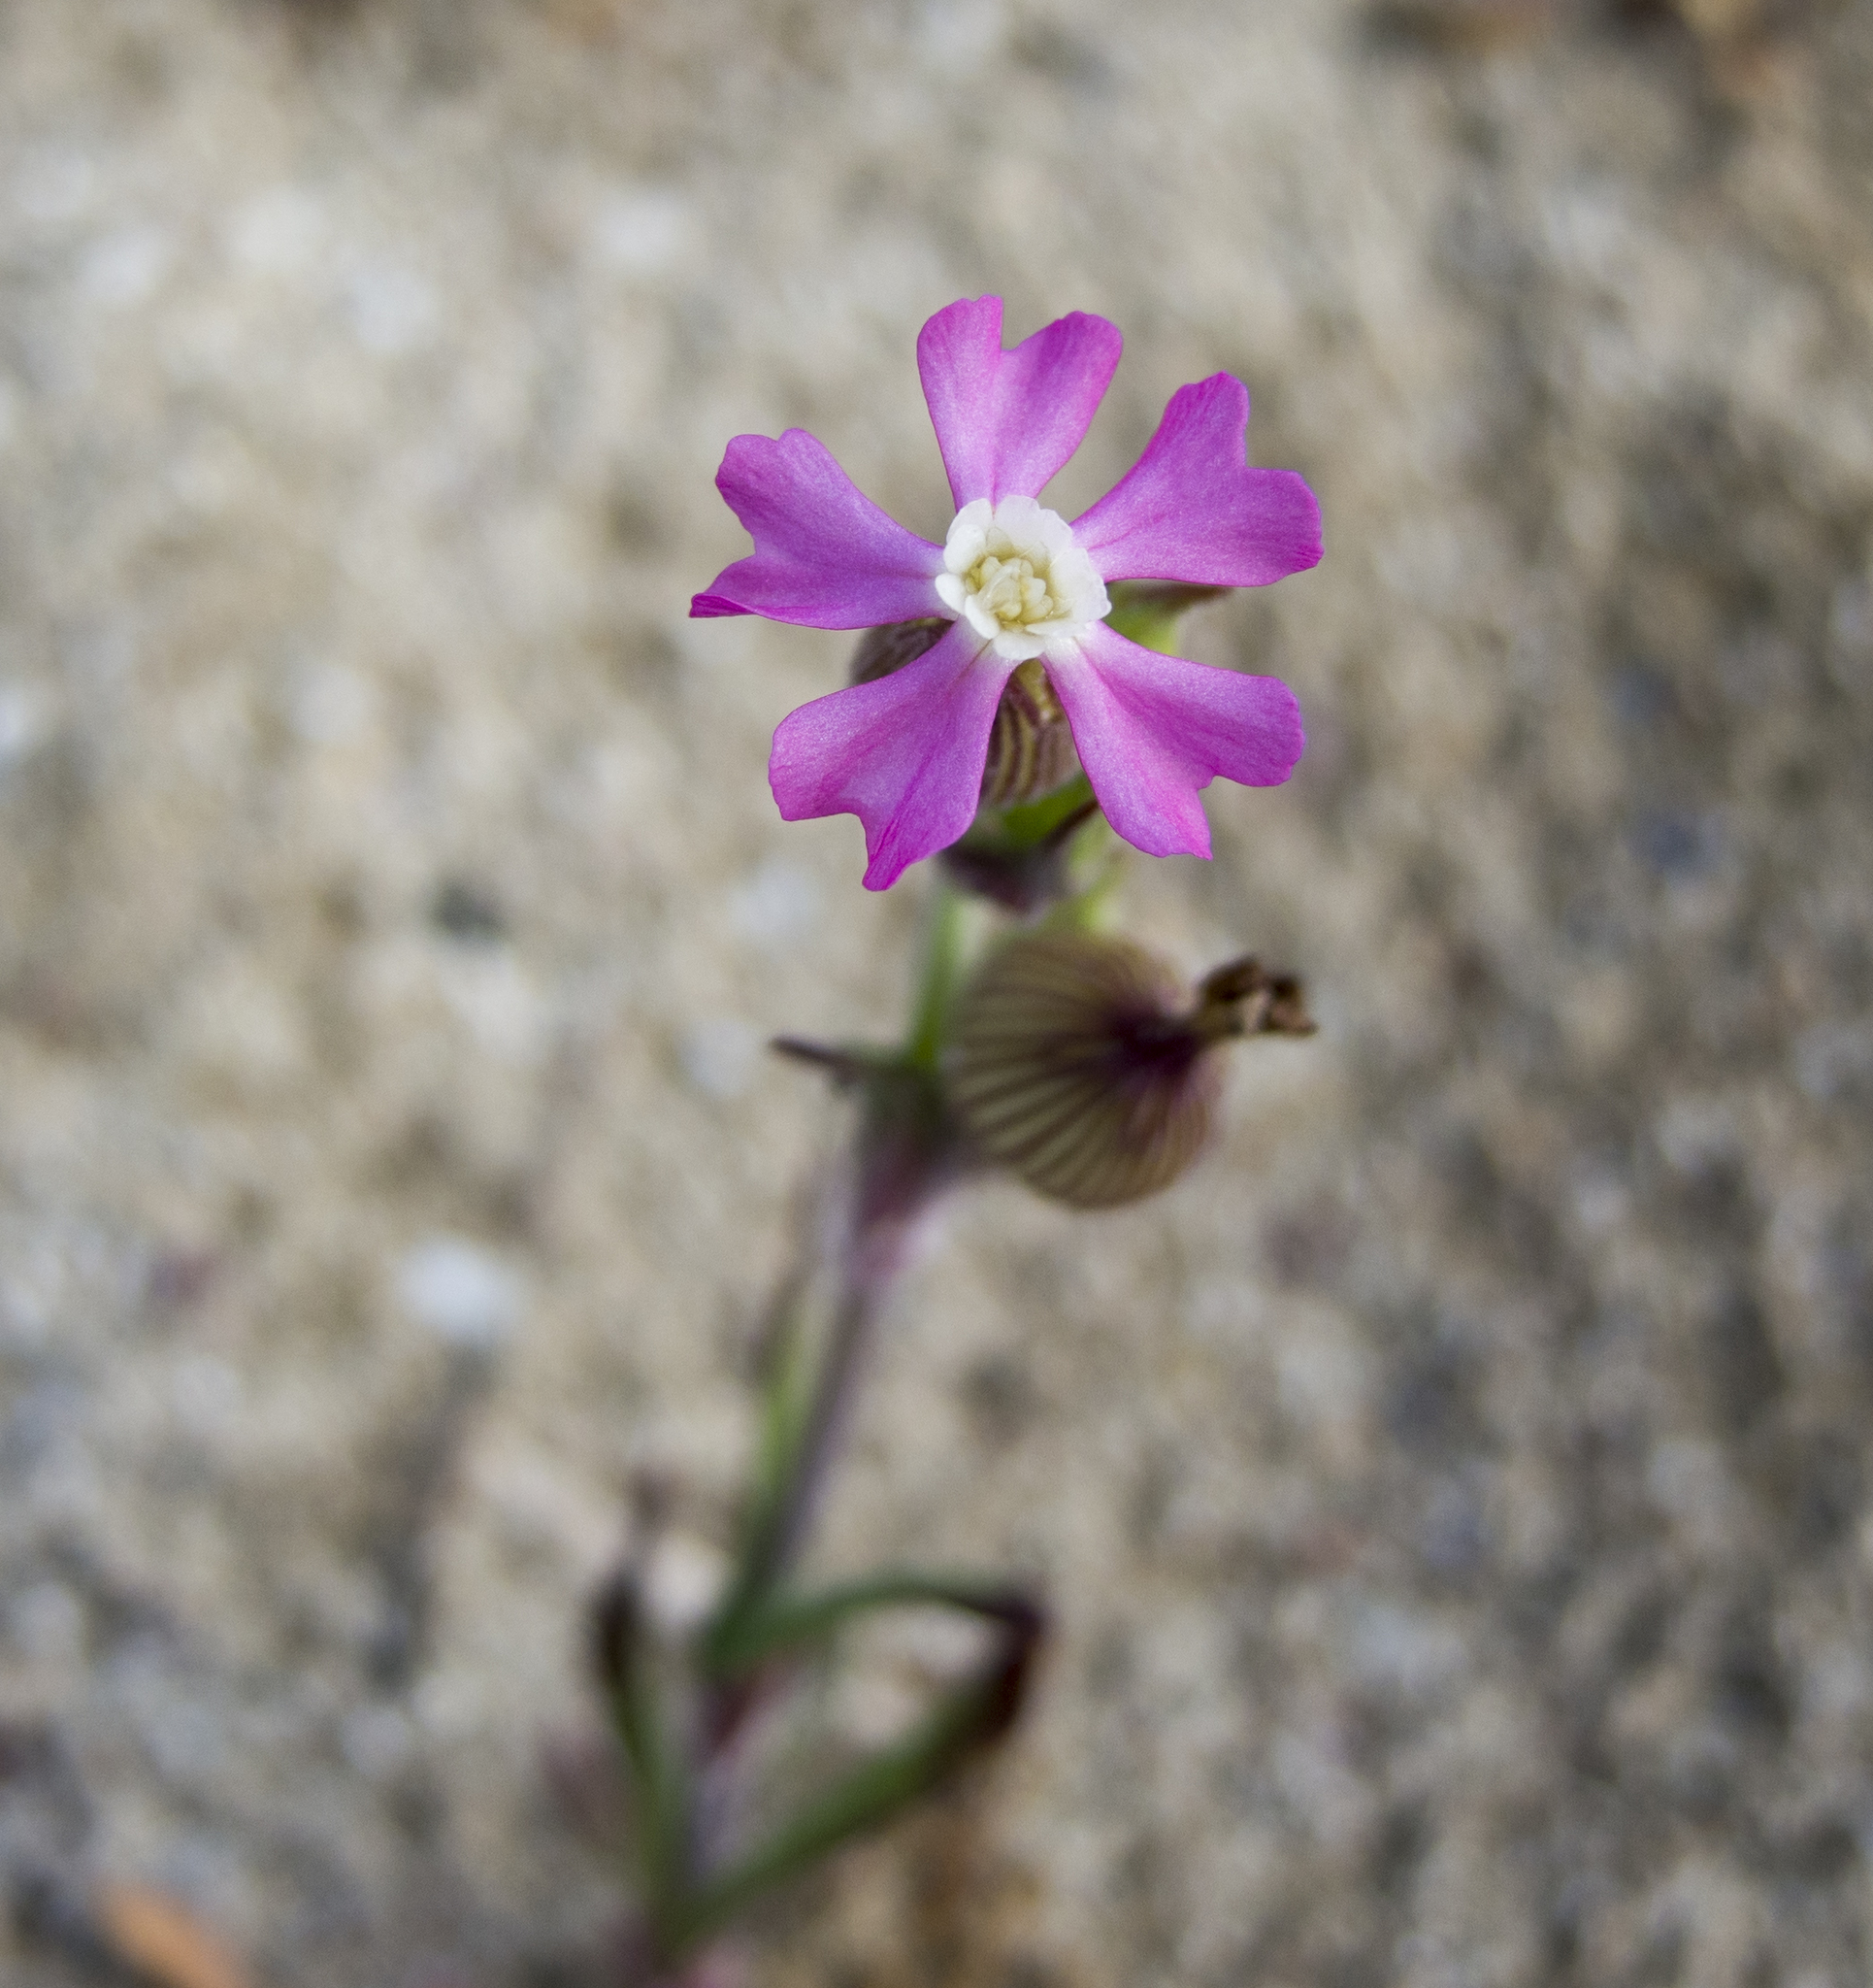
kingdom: Plantae
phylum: Tracheophyta
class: Magnoliopsida
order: Caryophyllales
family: Caryophyllaceae
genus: Silene
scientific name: Silene conica
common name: Sand catchfly
